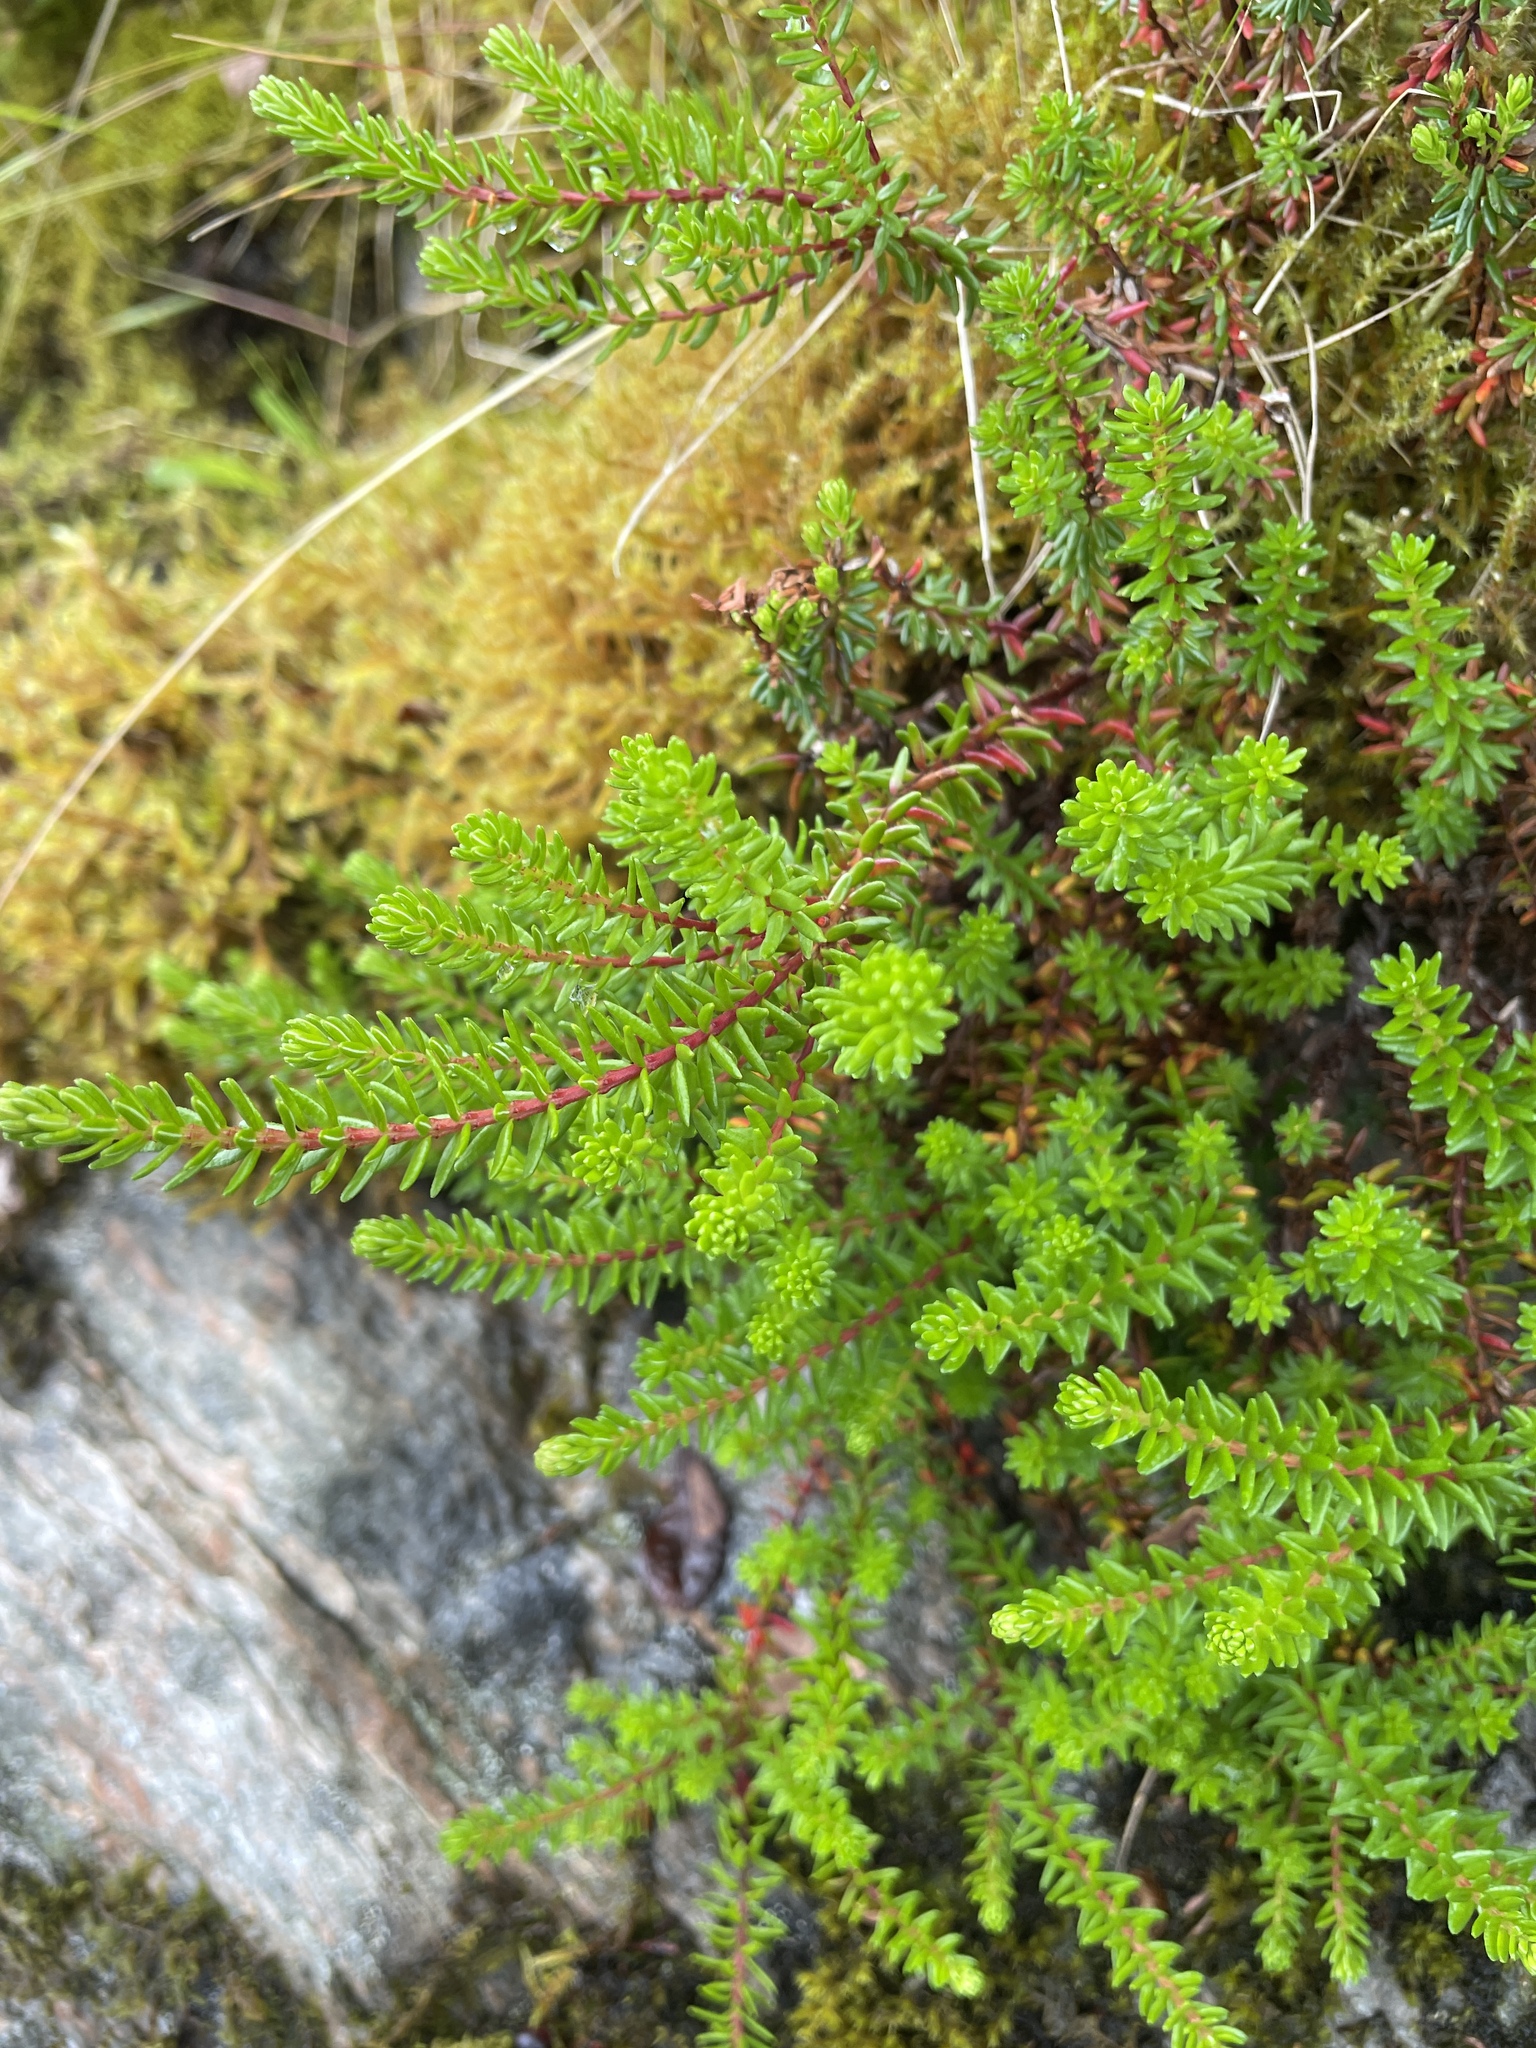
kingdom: Plantae
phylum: Tracheophyta
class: Magnoliopsida
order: Ericales
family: Ericaceae
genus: Empetrum
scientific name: Empetrum nigrum
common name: Black crowberry
